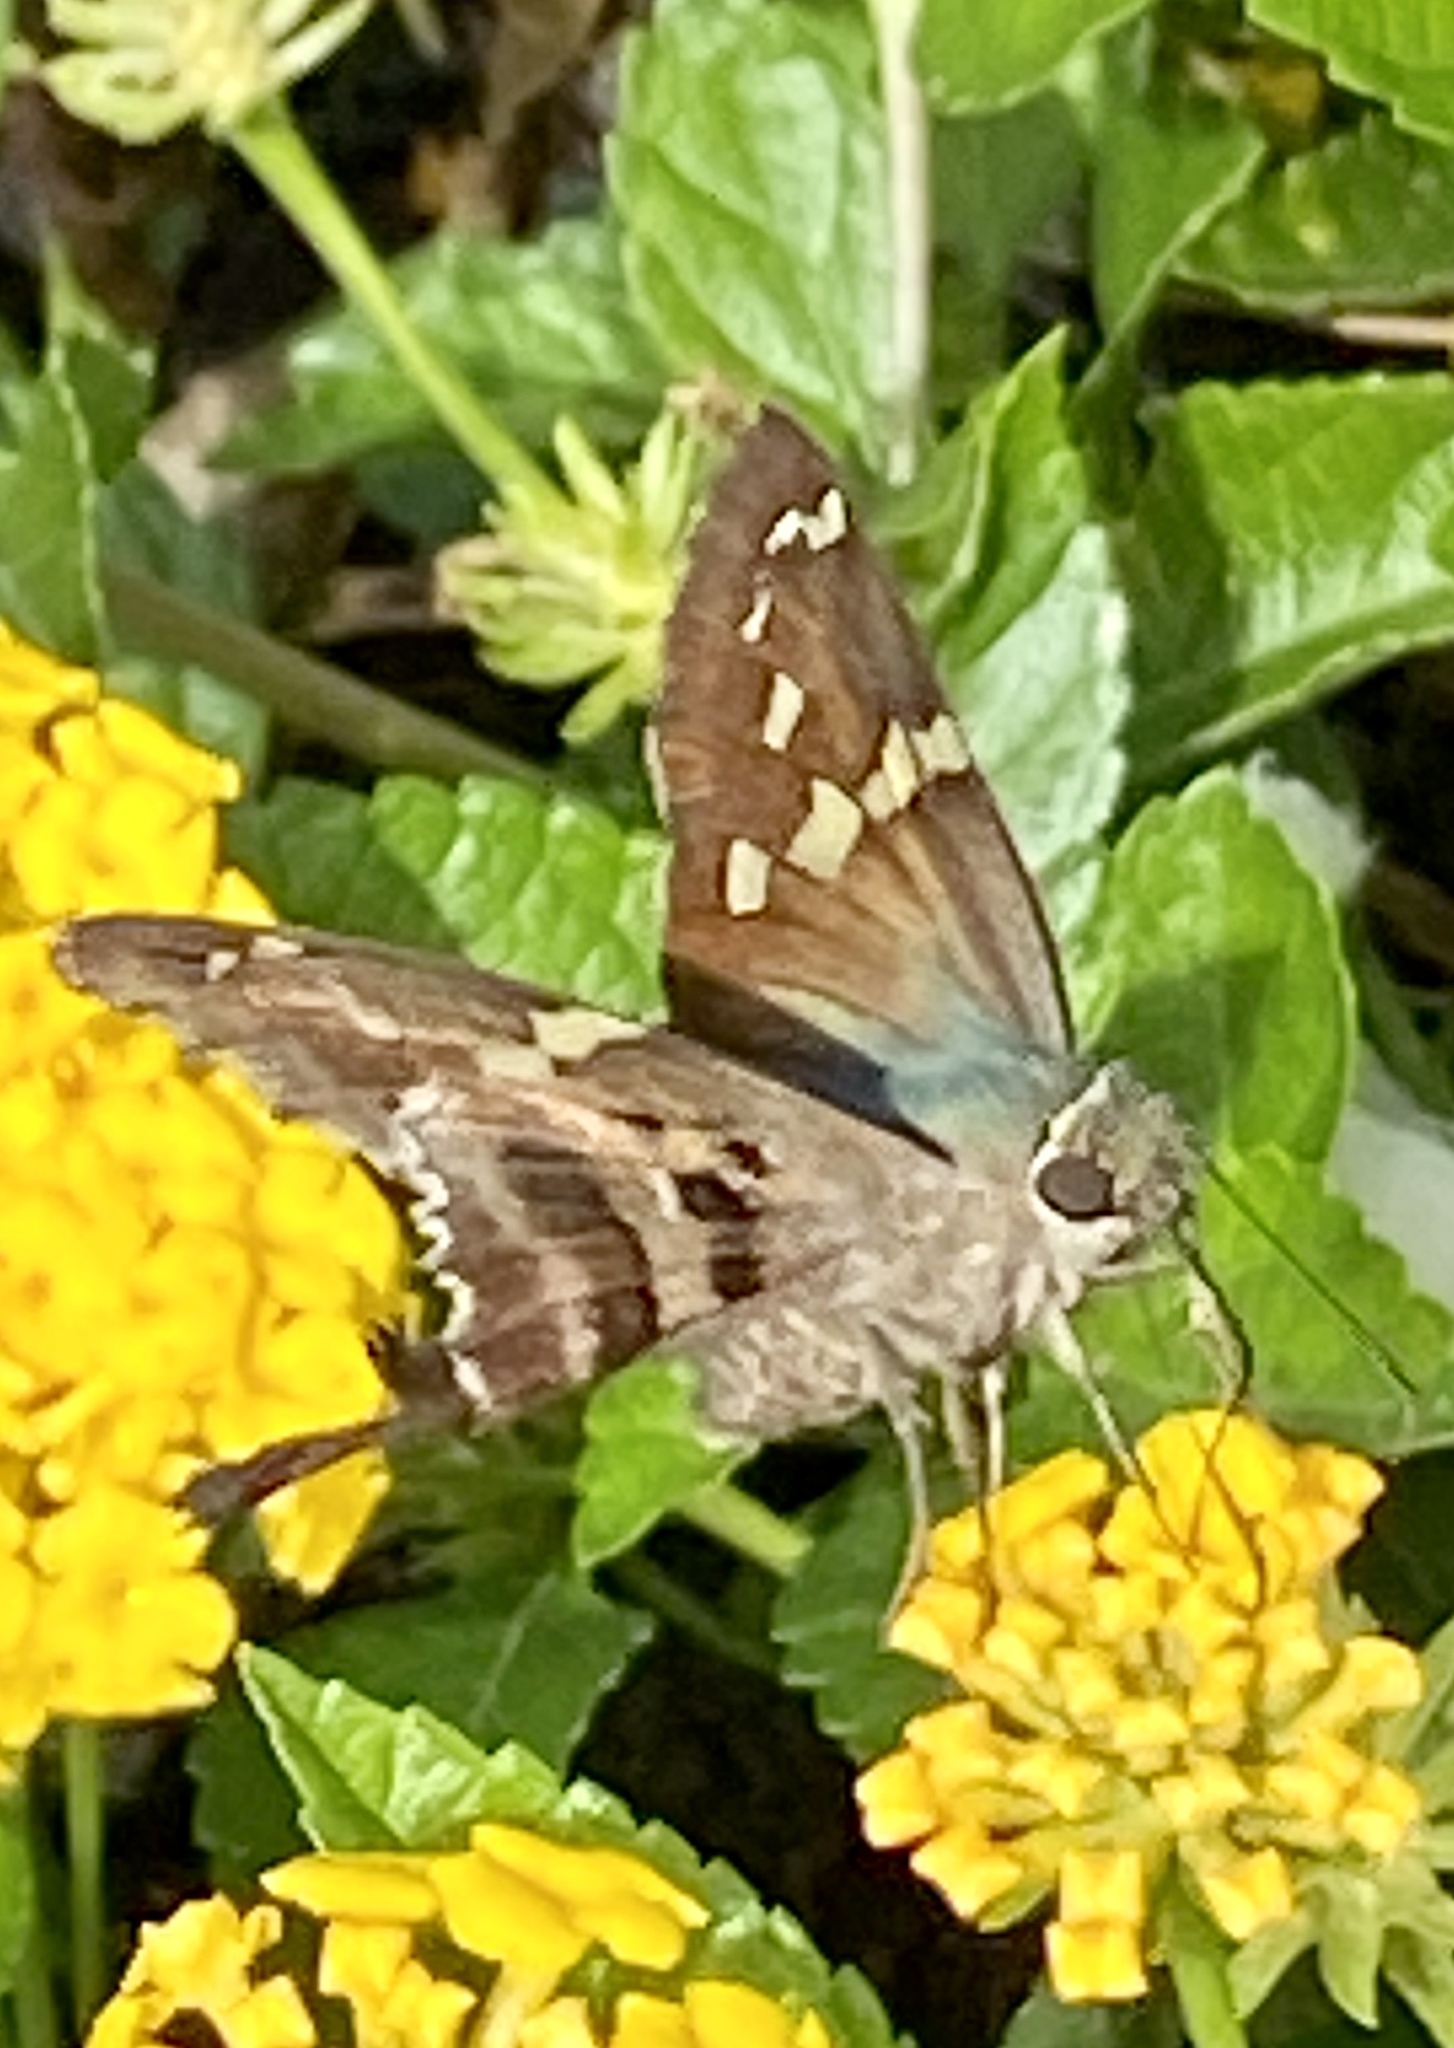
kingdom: Animalia
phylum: Arthropoda
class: Insecta
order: Lepidoptera
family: Hesperiidae
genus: Urbanus
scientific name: Urbanus proteus
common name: Long-tailed skipper
